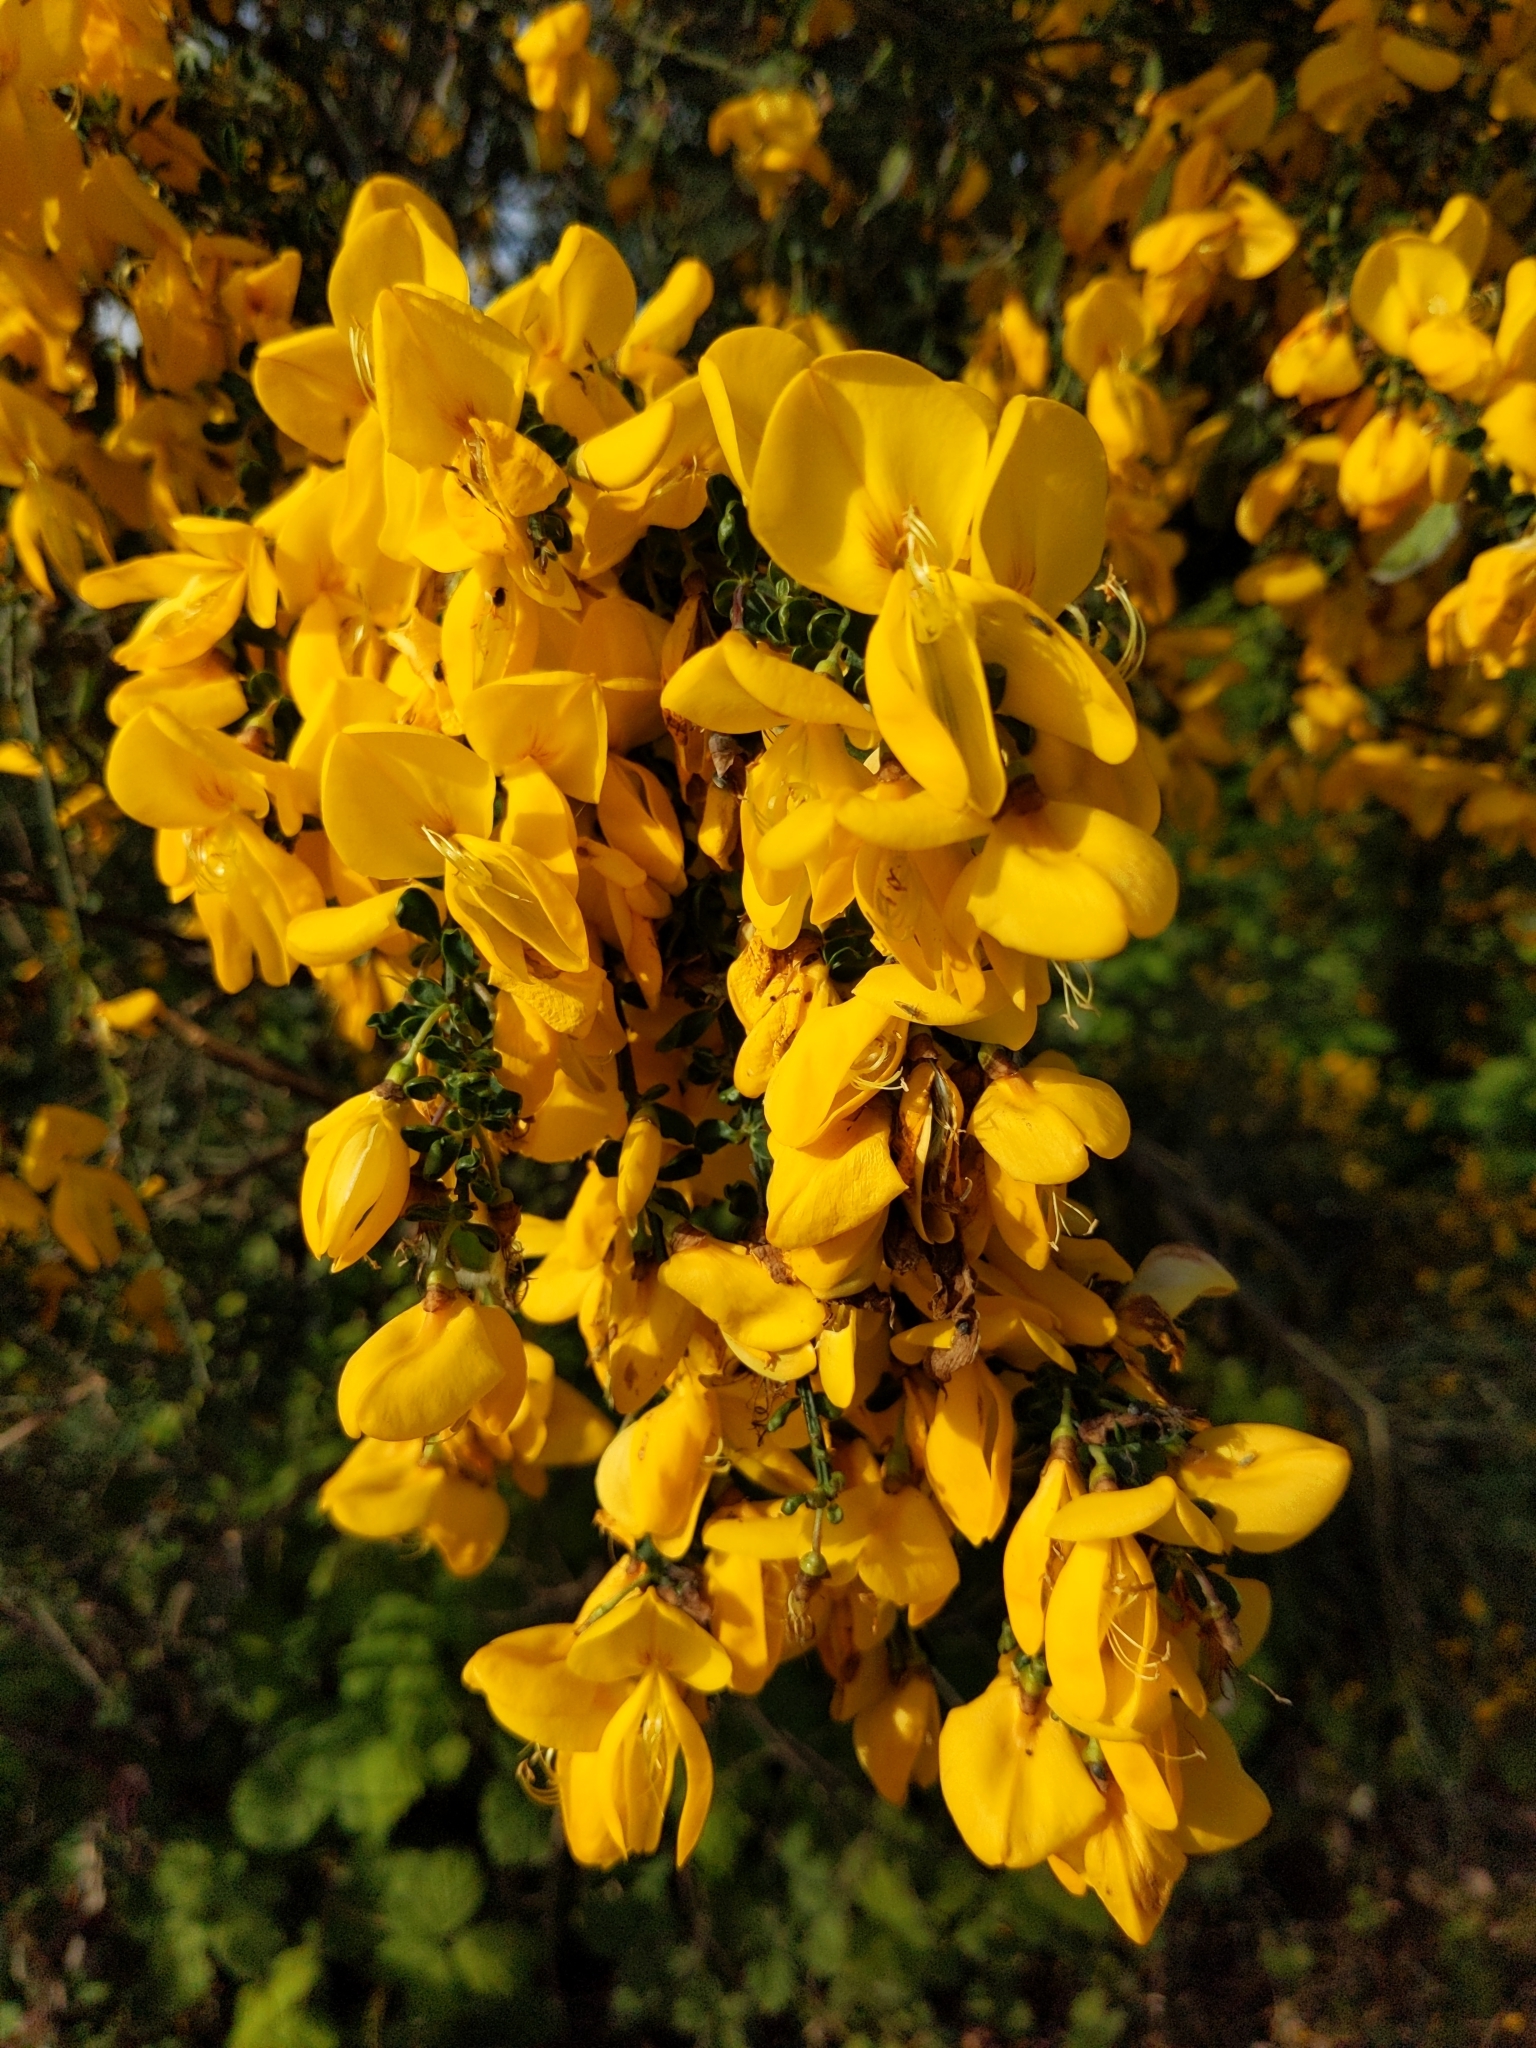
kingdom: Plantae
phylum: Tracheophyta
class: Magnoliopsida
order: Fabales
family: Fabaceae
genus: Cytisus
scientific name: Cytisus scoparius
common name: Scotch broom
